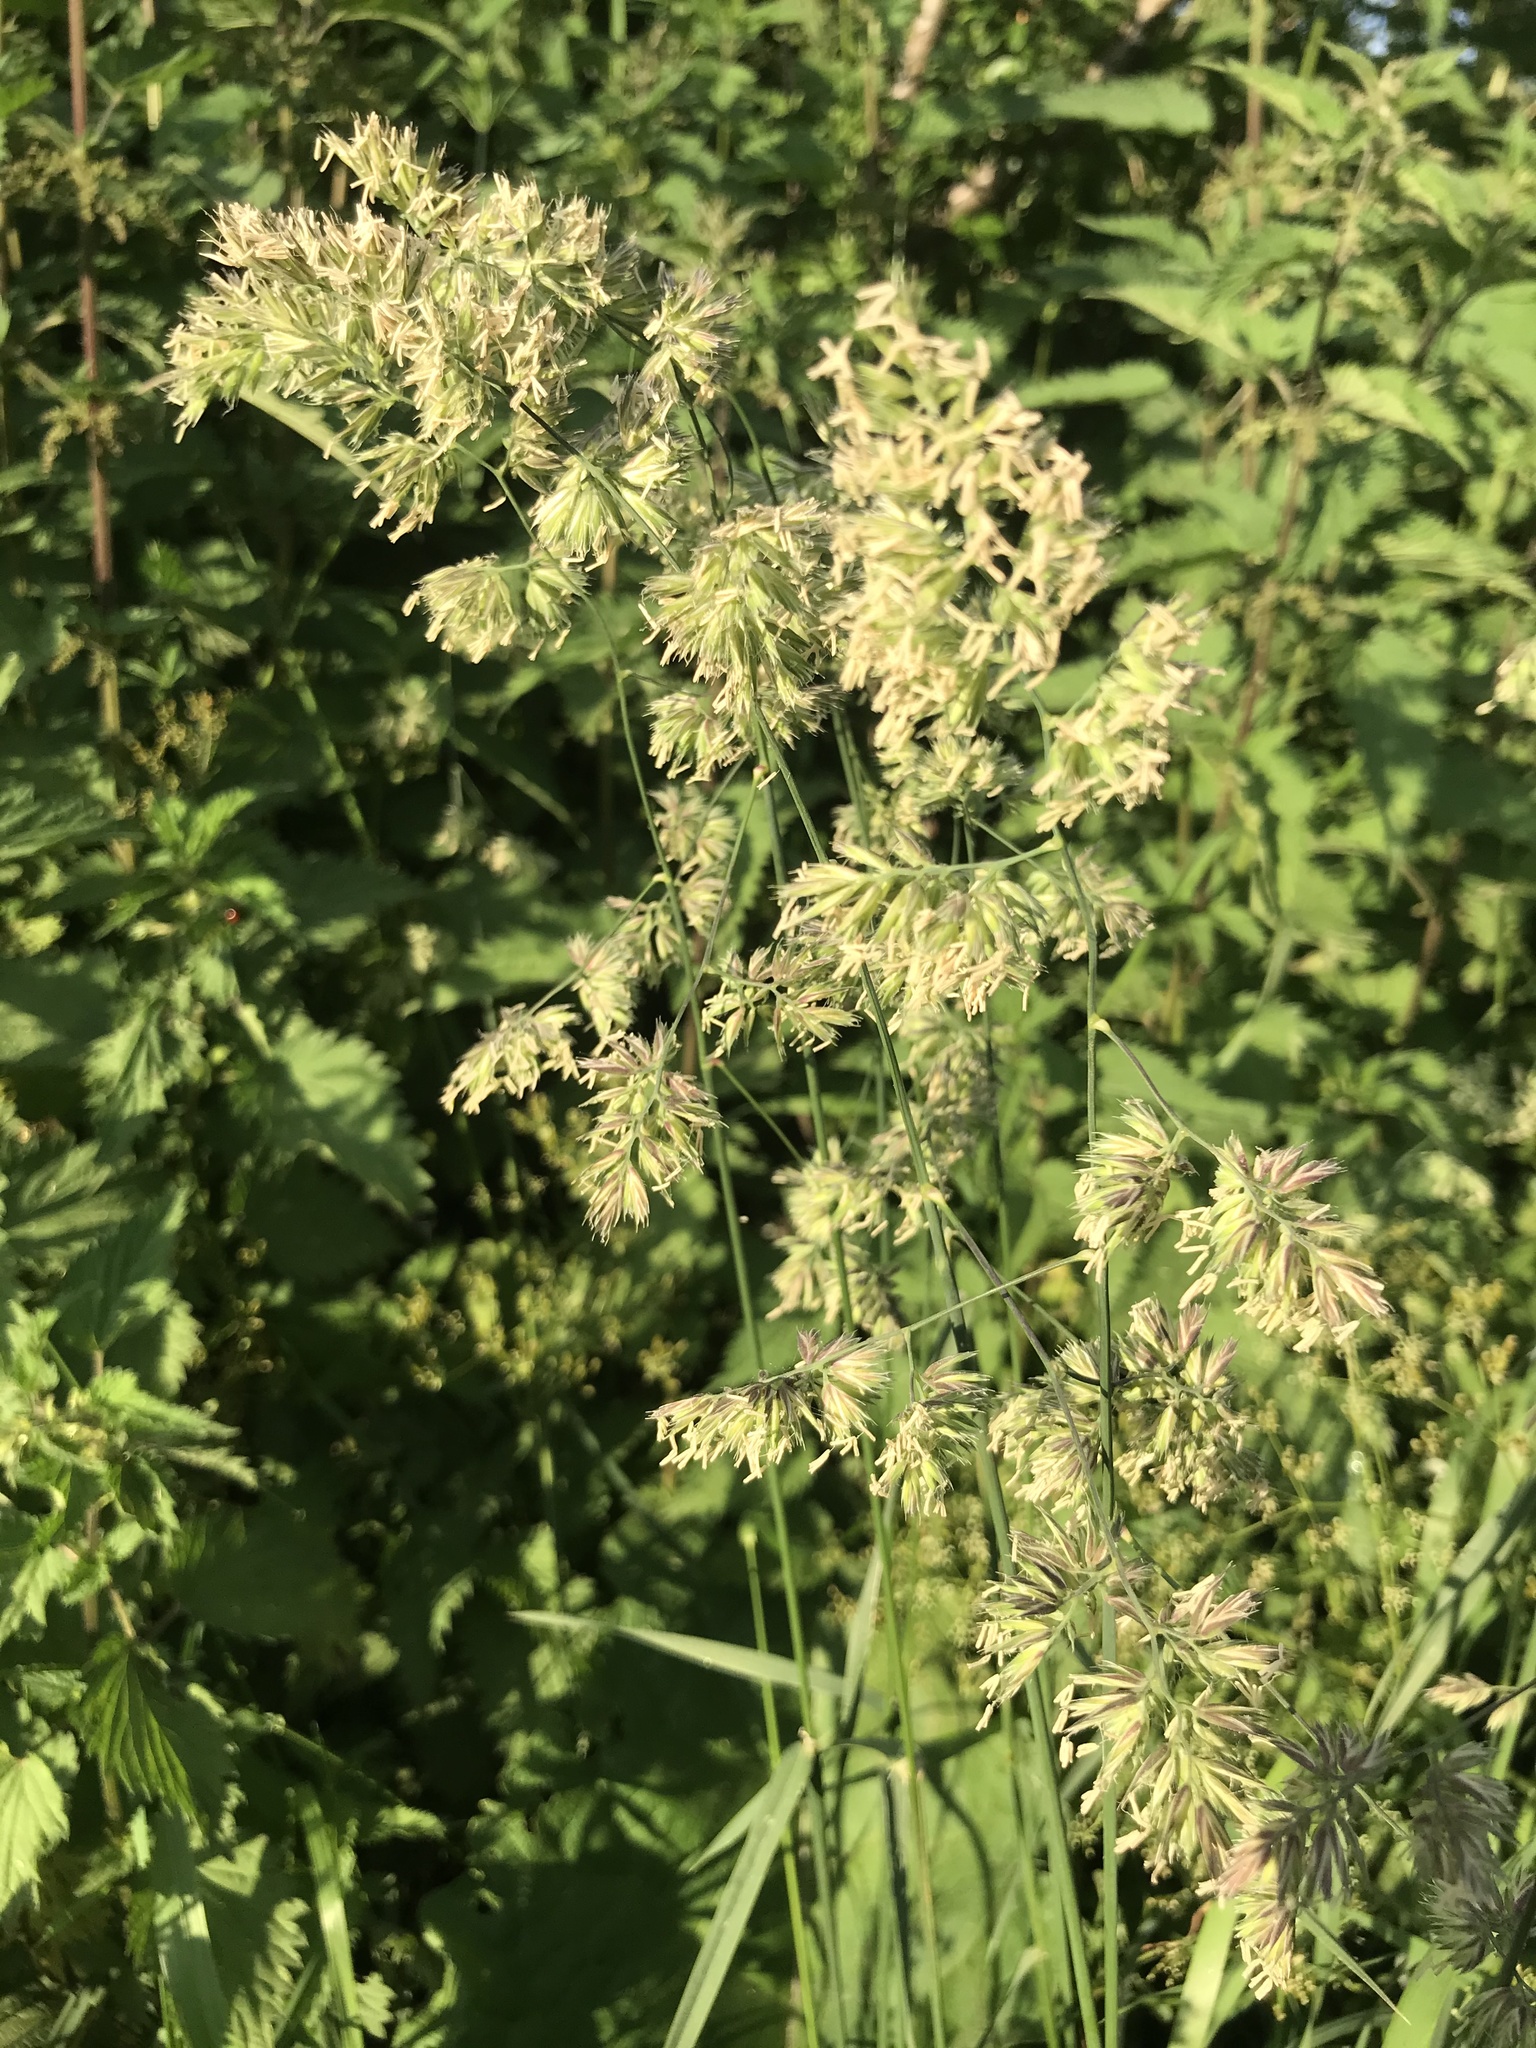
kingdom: Plantae
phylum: Tracheophyta
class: Liliopsida
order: Poales
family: Poaceae
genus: Dactylis
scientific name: Dactylis glomerata
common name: Orchardgrass
